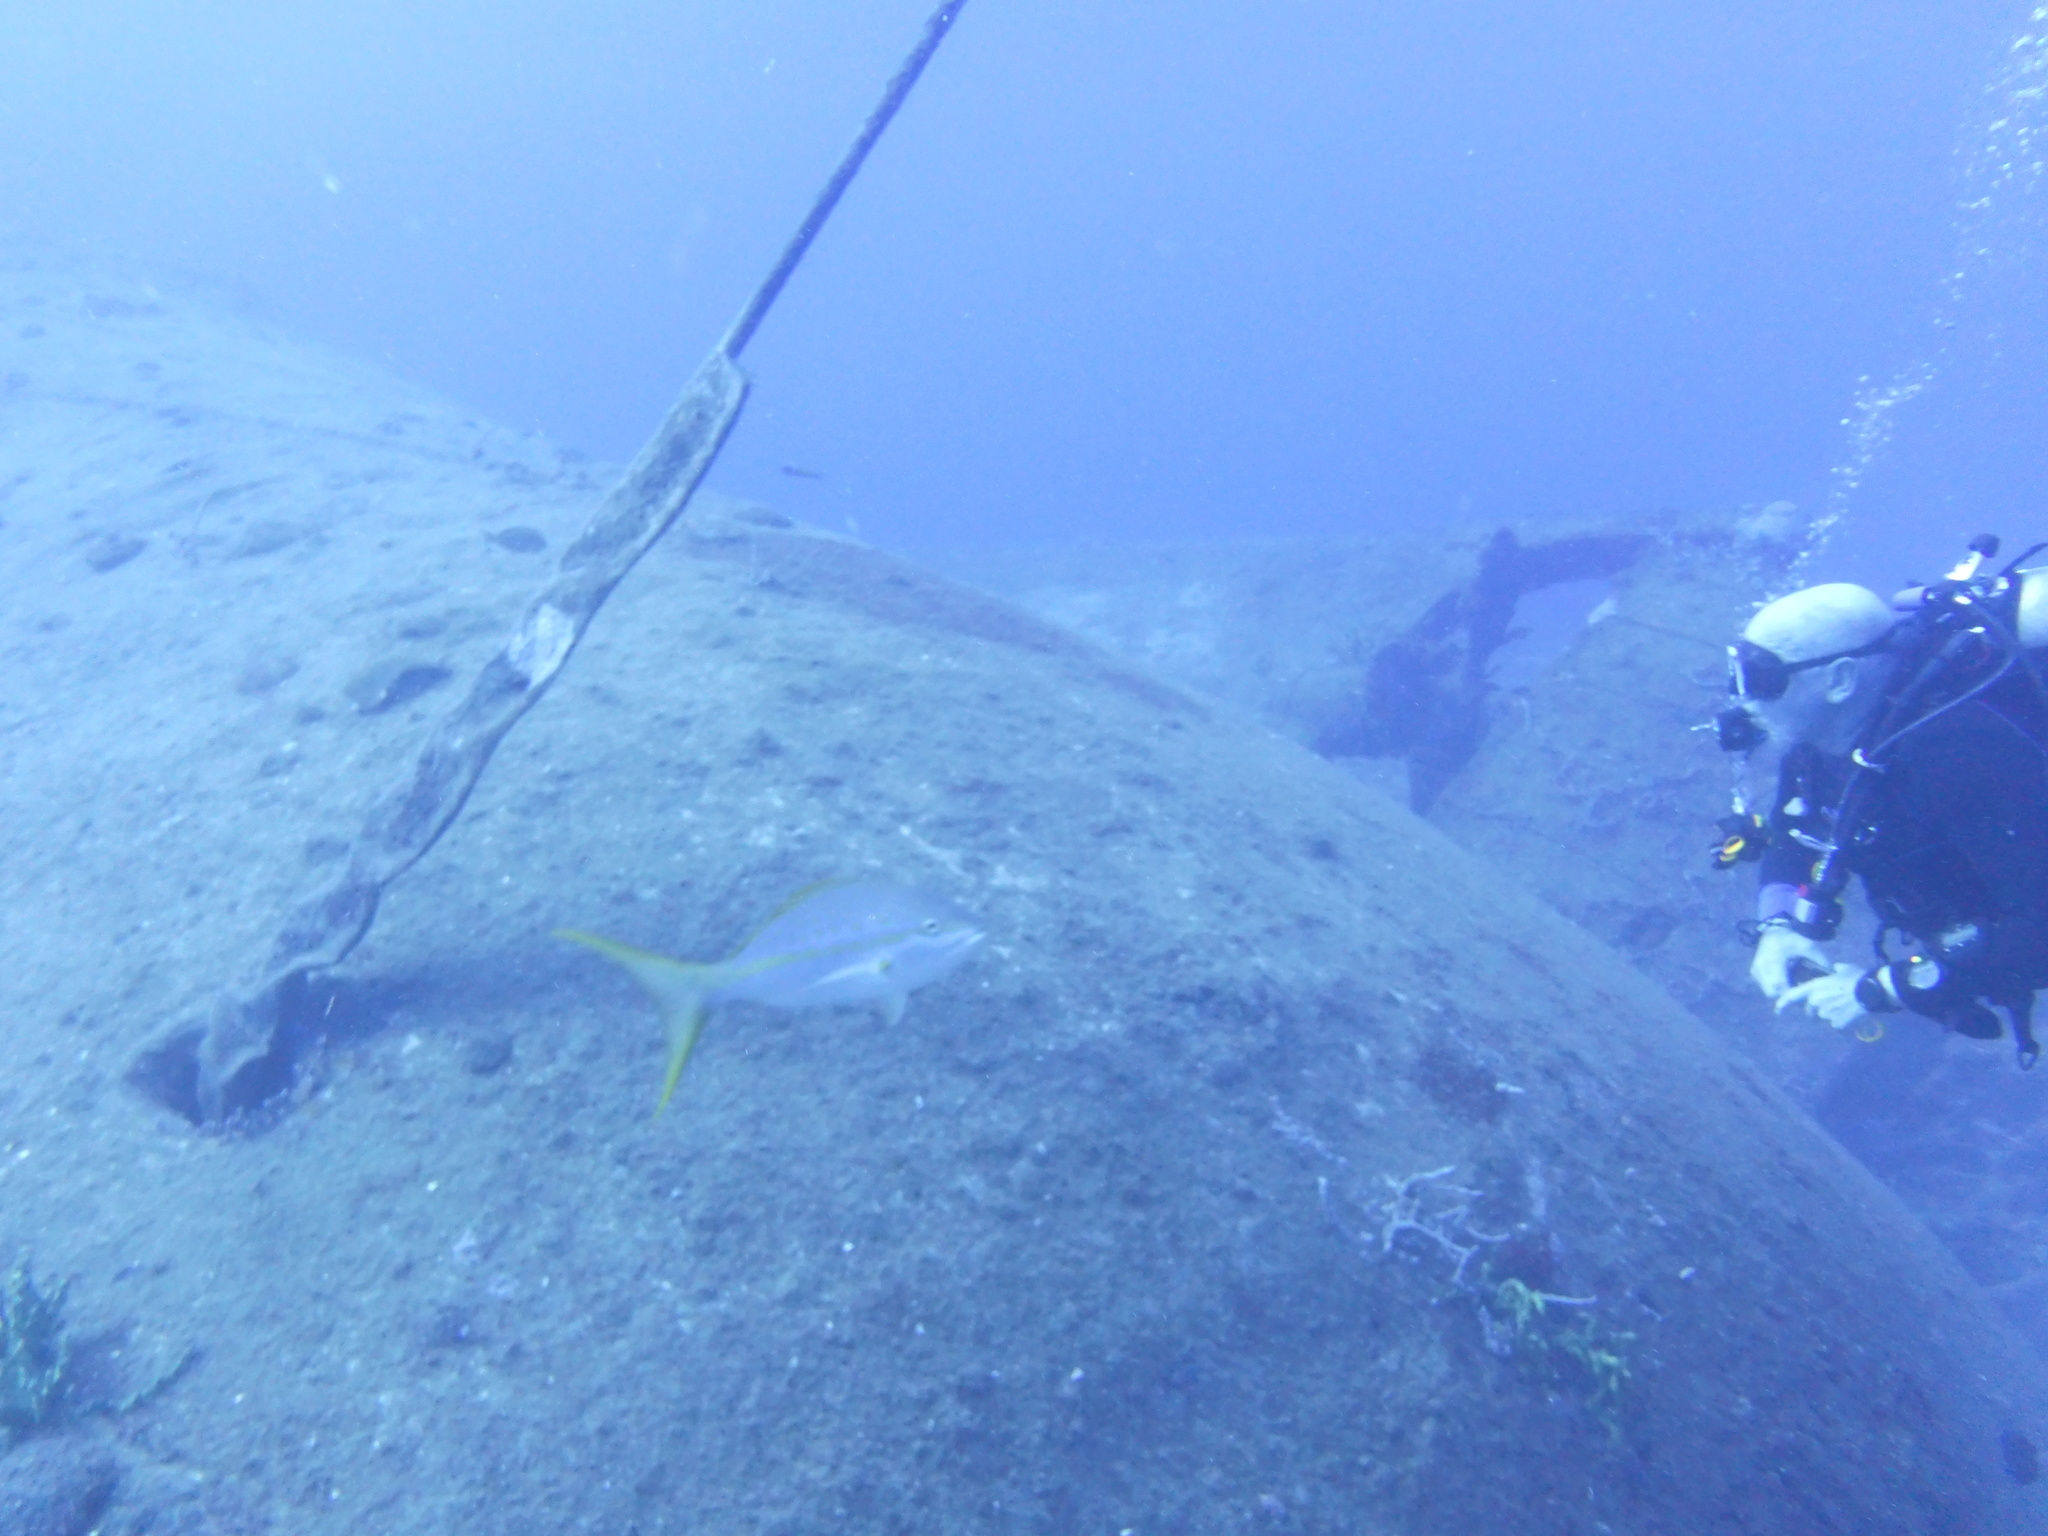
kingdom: Animalia
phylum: Chordata
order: Perciformes
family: Lutjanidae
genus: Ocyurus
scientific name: Ocyurus chrysurus
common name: Yellowtail snapper
